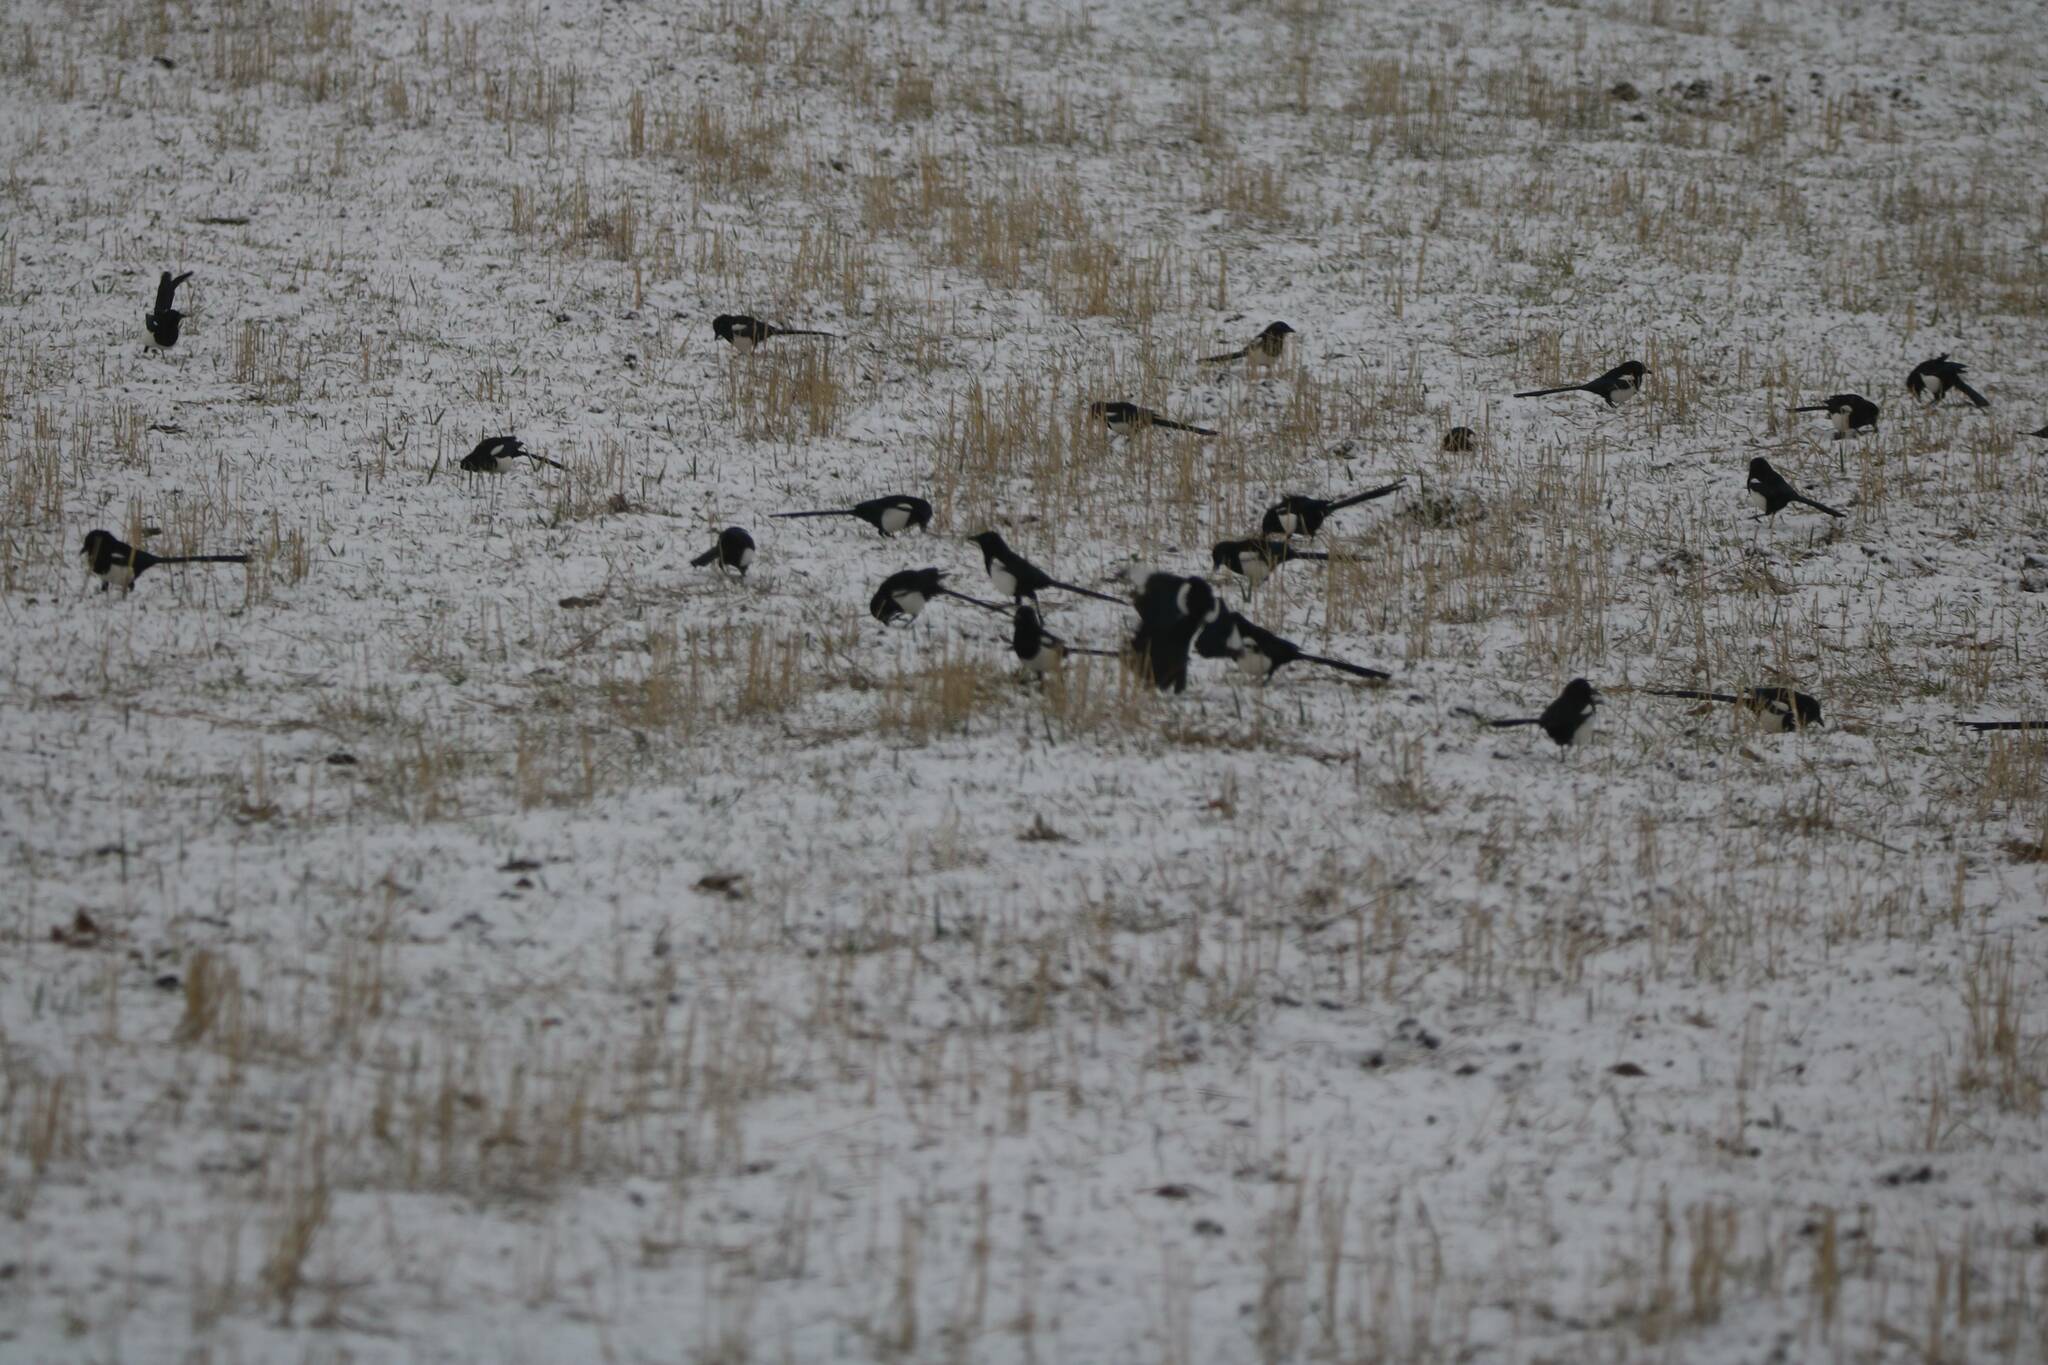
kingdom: Animalia
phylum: Chordata
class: Aves
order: Passeriformes
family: Corvidae
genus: Pica
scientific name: Pica mauritanica
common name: Maghreb magpie
